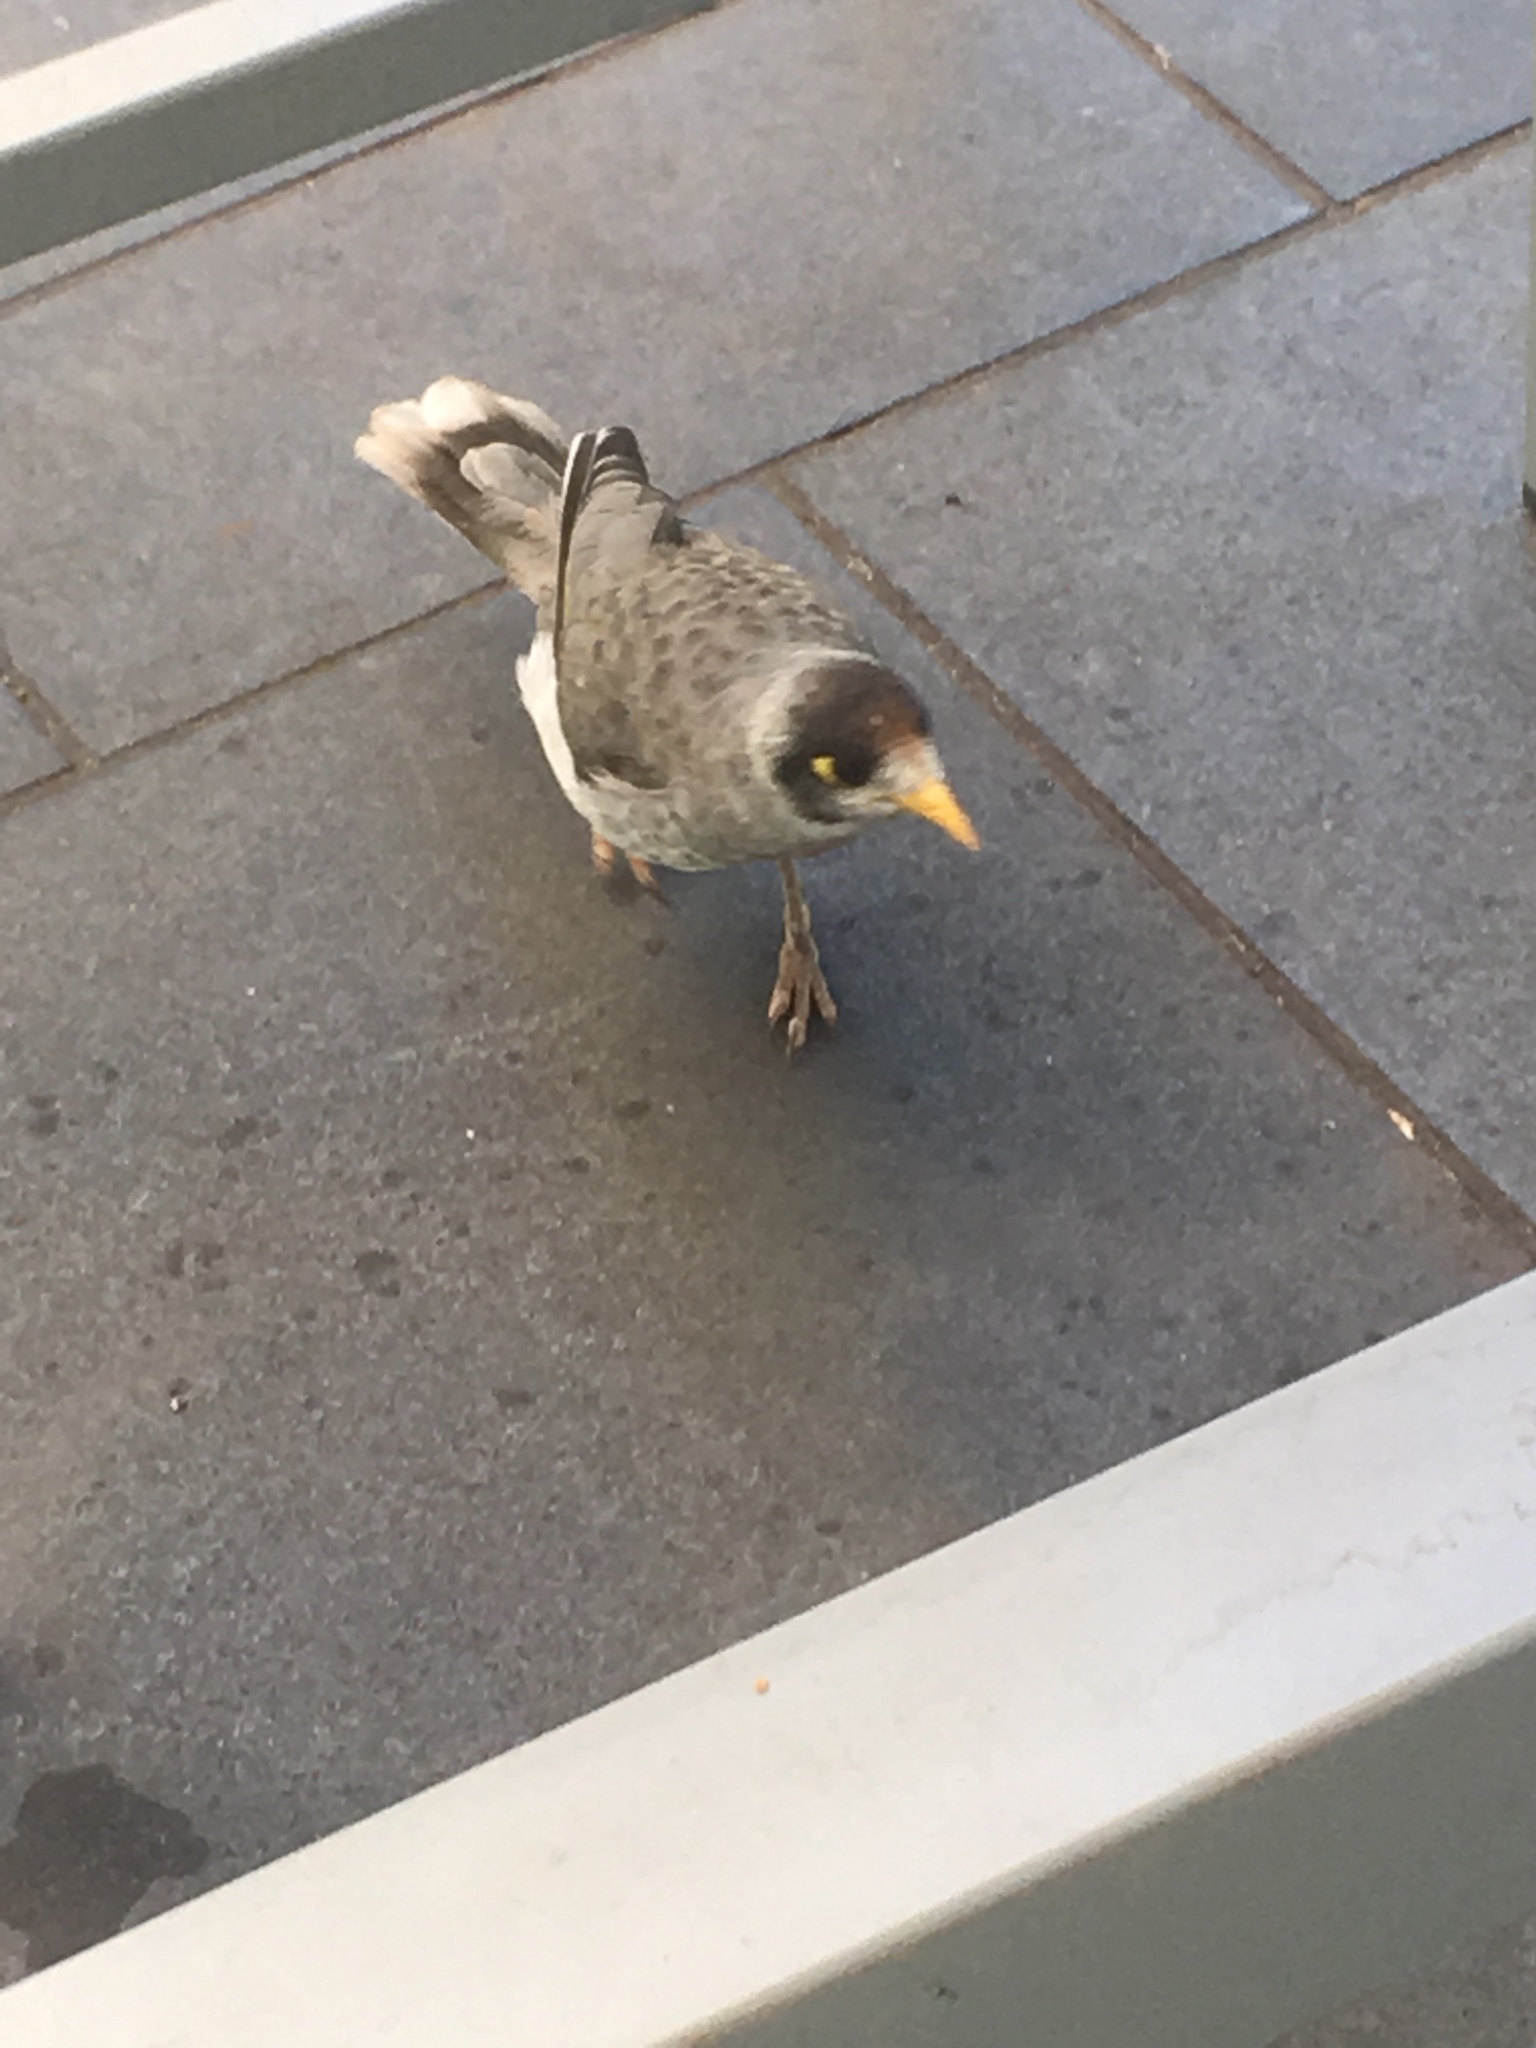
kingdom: Animalia
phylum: Chordata
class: Aves
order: Passeriformes
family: Meliphagidae
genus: Manorina
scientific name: Manorina melanocephala
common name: Noisy miner
